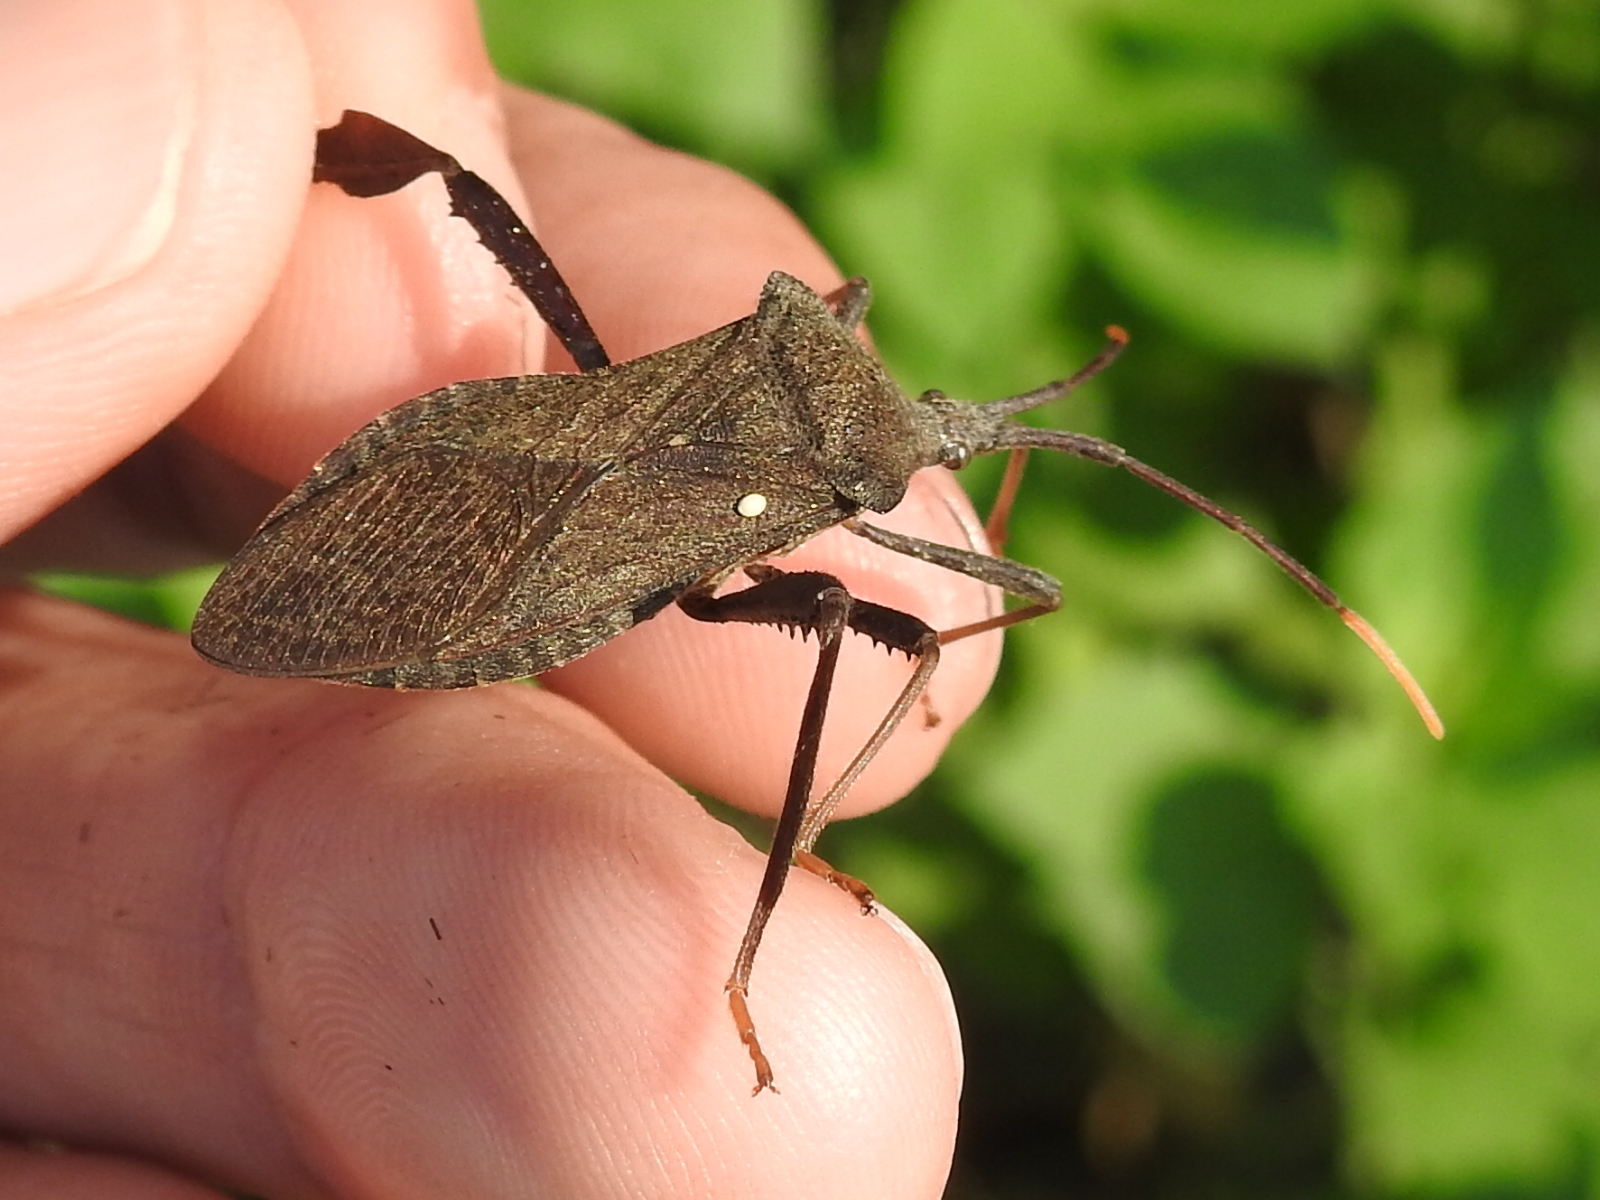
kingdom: Animalia
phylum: Arthropoda
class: Insecta
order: Hemiptera
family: Coreidae
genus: Acanthocephala
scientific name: Acanthocephala terminalis
